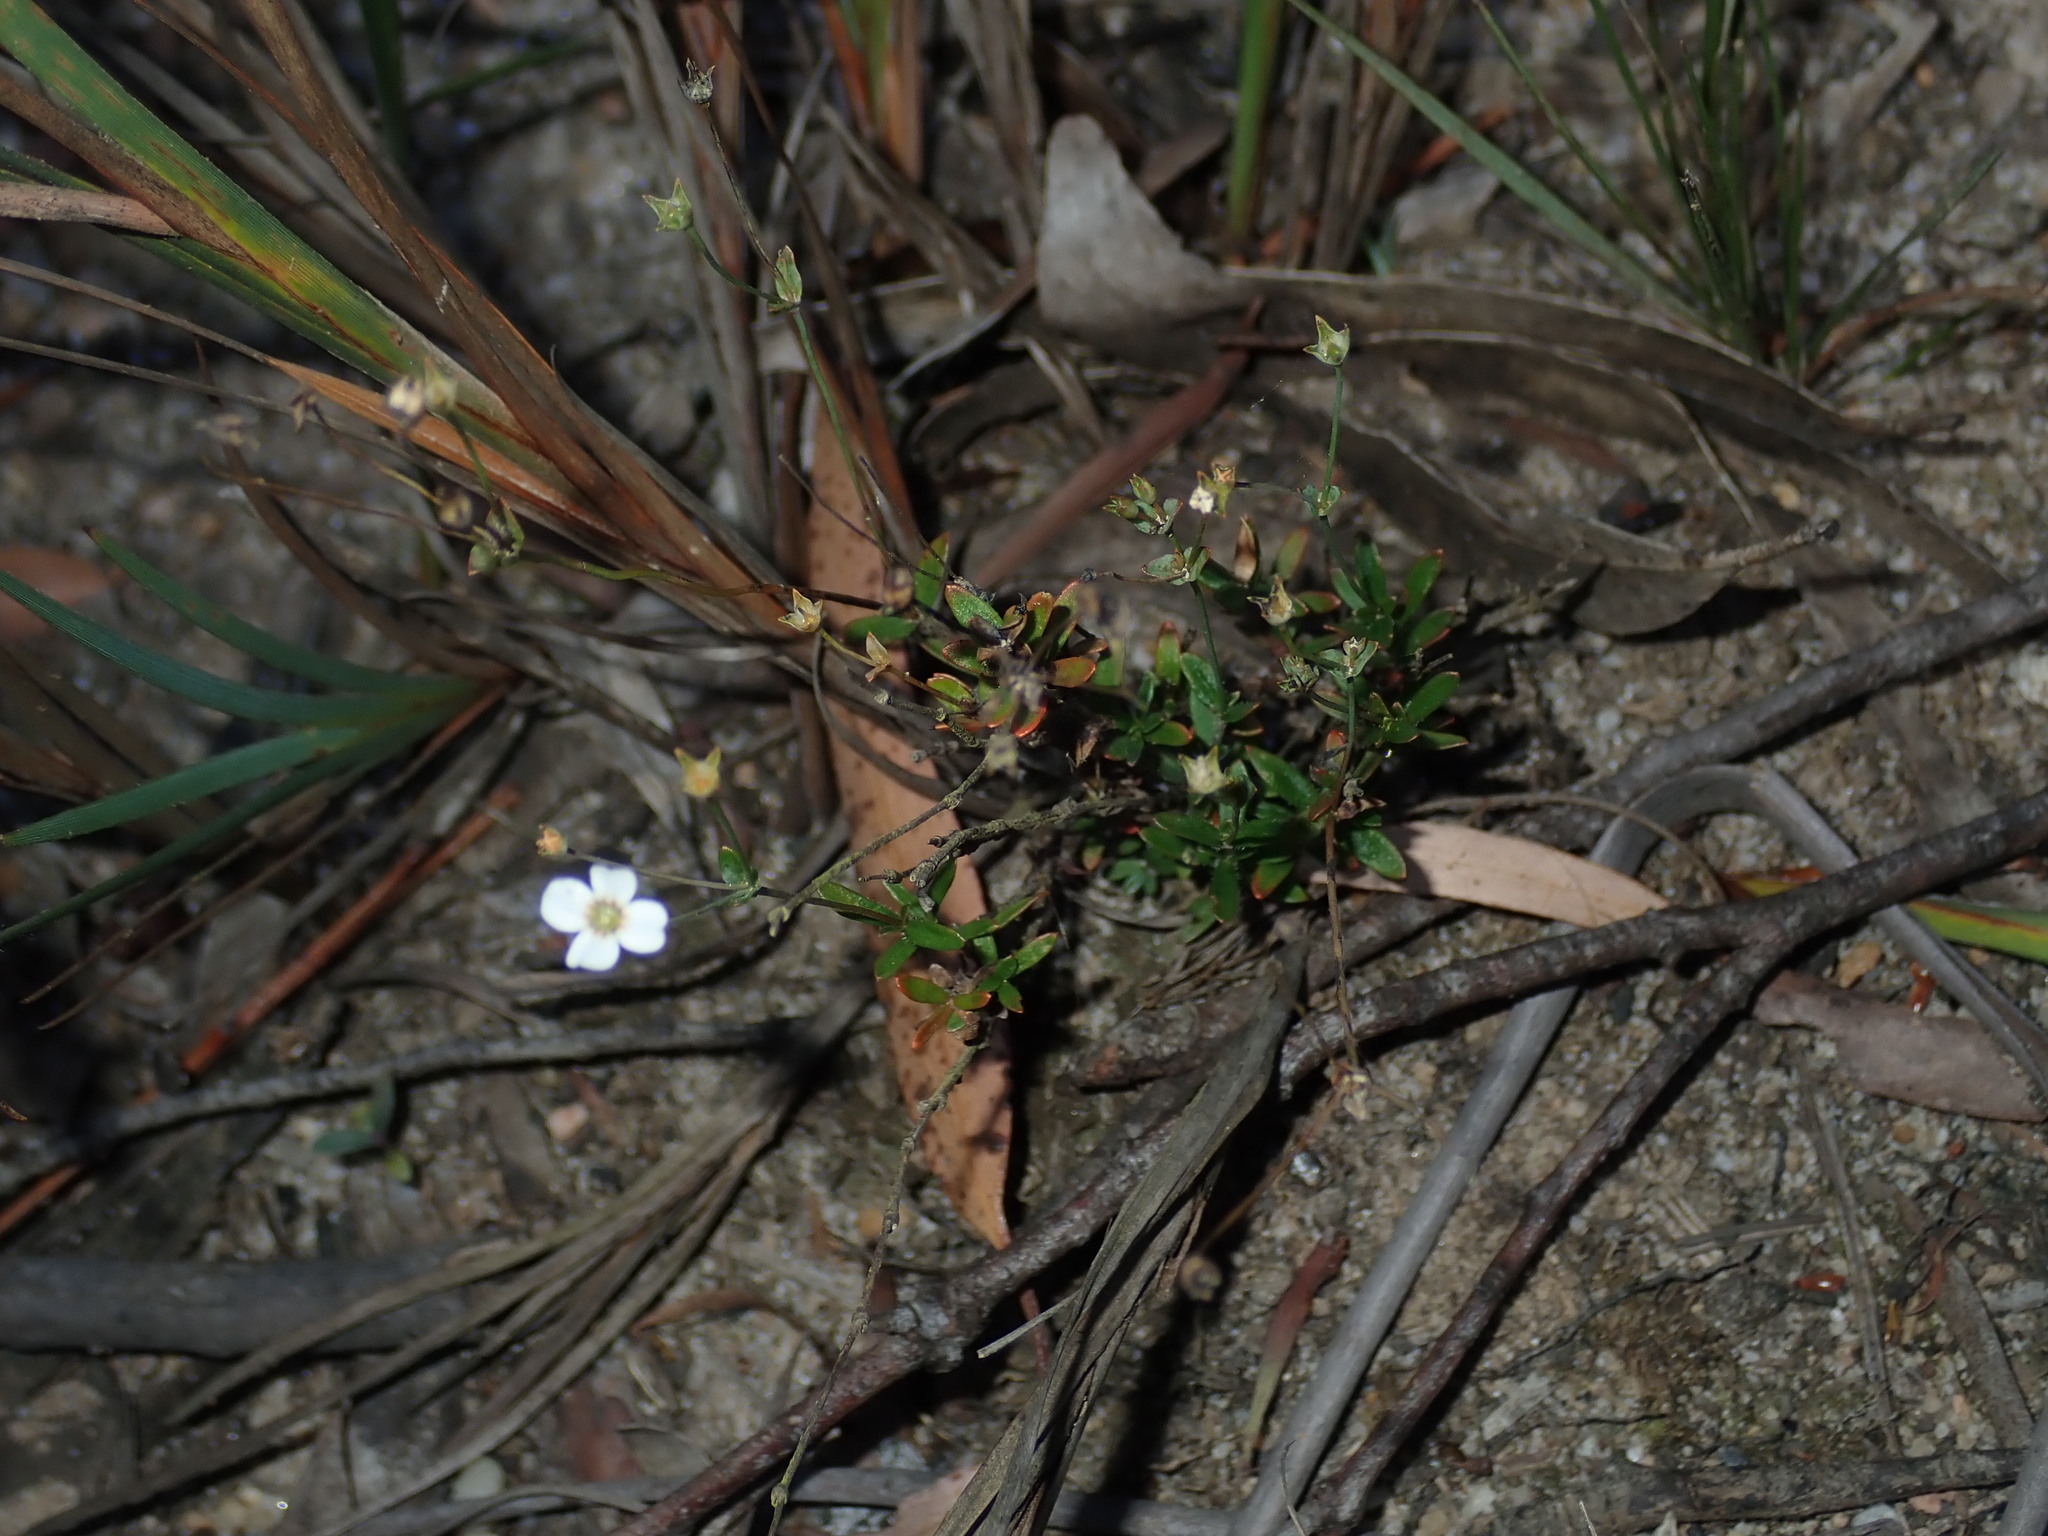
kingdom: Plantae
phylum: Tracheophyta
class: Magnoliopsida
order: Gentianales
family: Loganiaceae
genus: Mitrasacme
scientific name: Mitrasacme polymorpha
